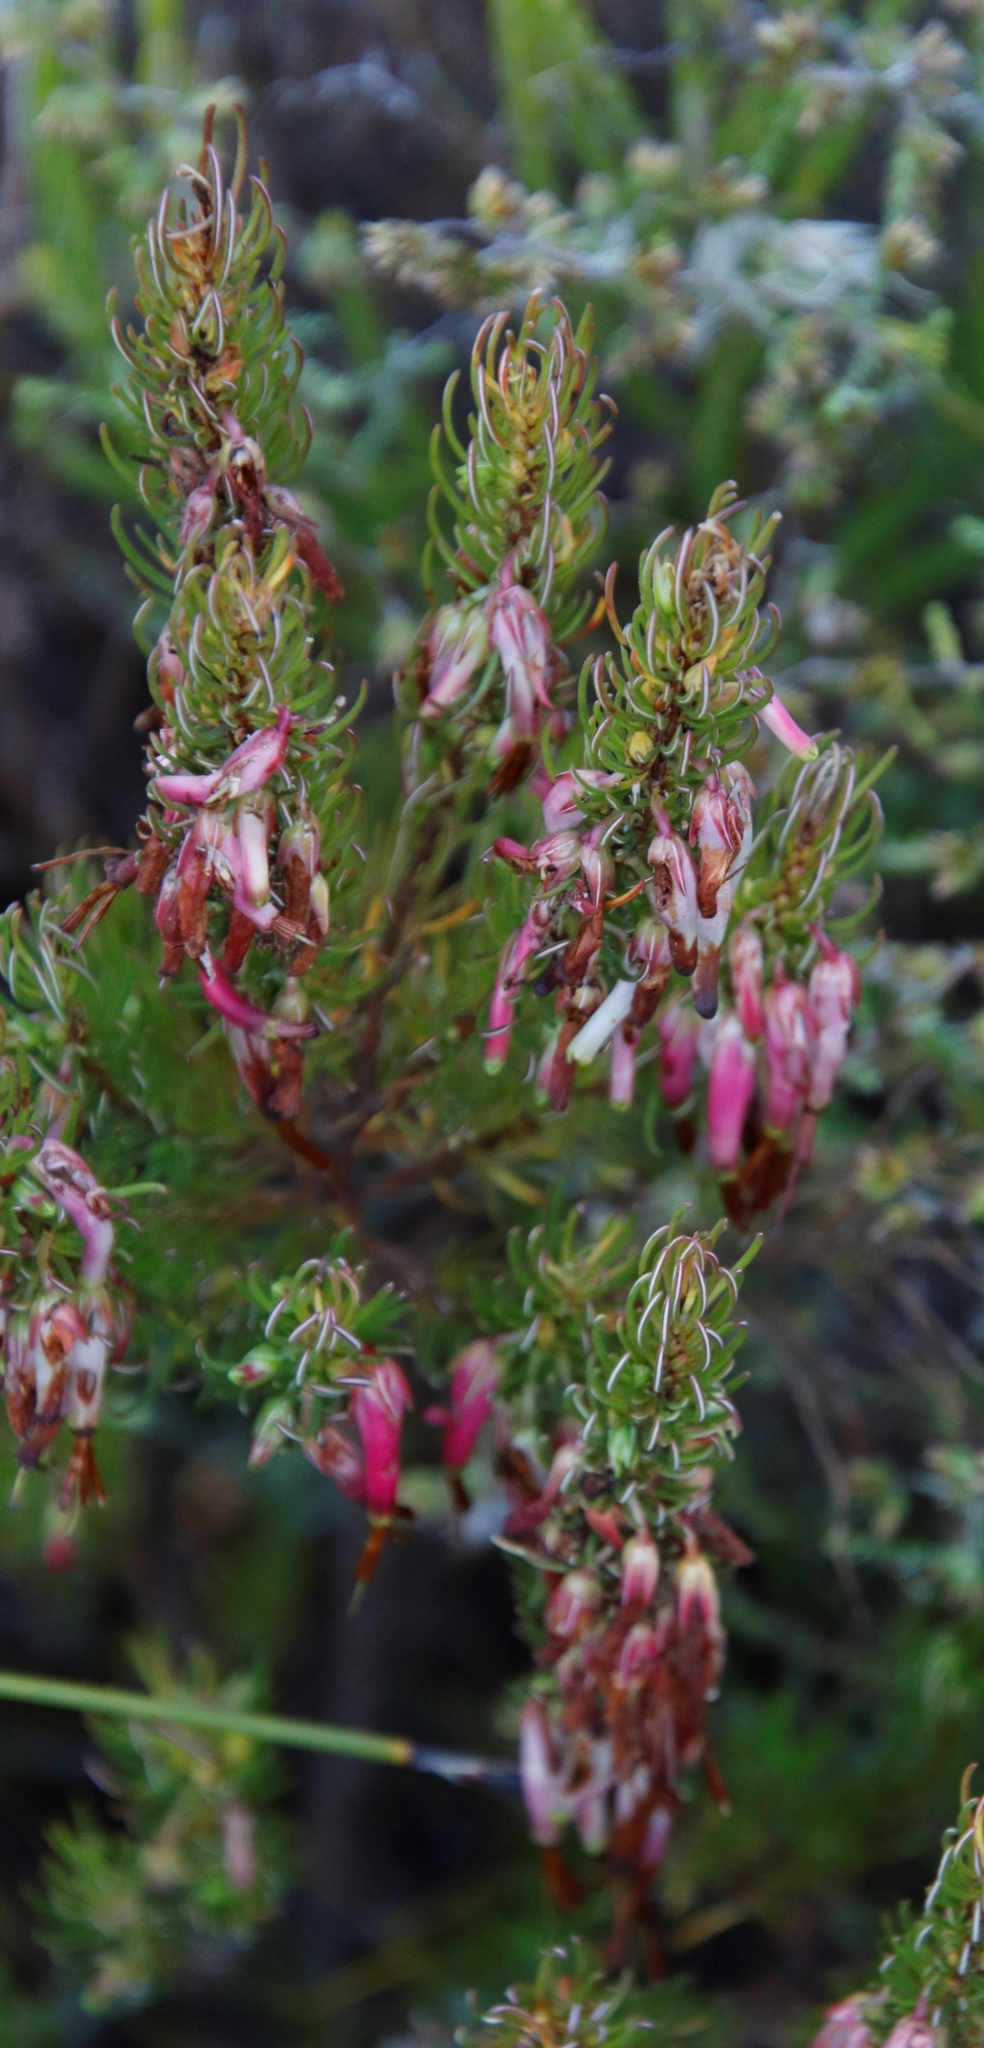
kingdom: Plantae
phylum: Tracheophyta
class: Magnoliopsida
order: Ericales
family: Ericaceae
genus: Erica
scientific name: Erica plukenetii
